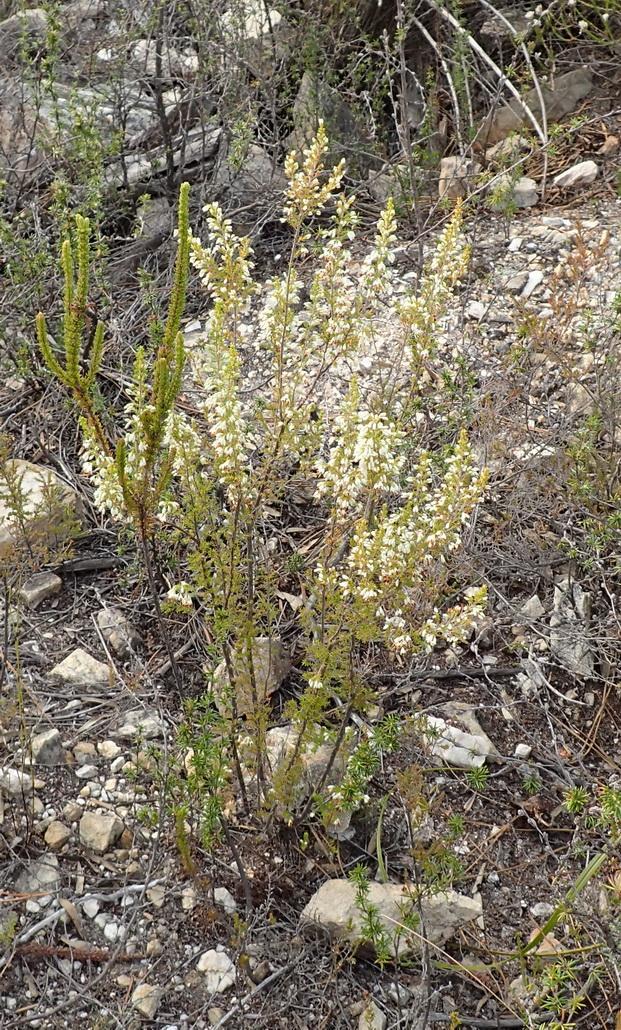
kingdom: Plantae
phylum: Tracheophyta
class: Magnoliopsida
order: Ericales
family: Ericaceae
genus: Erica
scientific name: Erica penicilliformis
